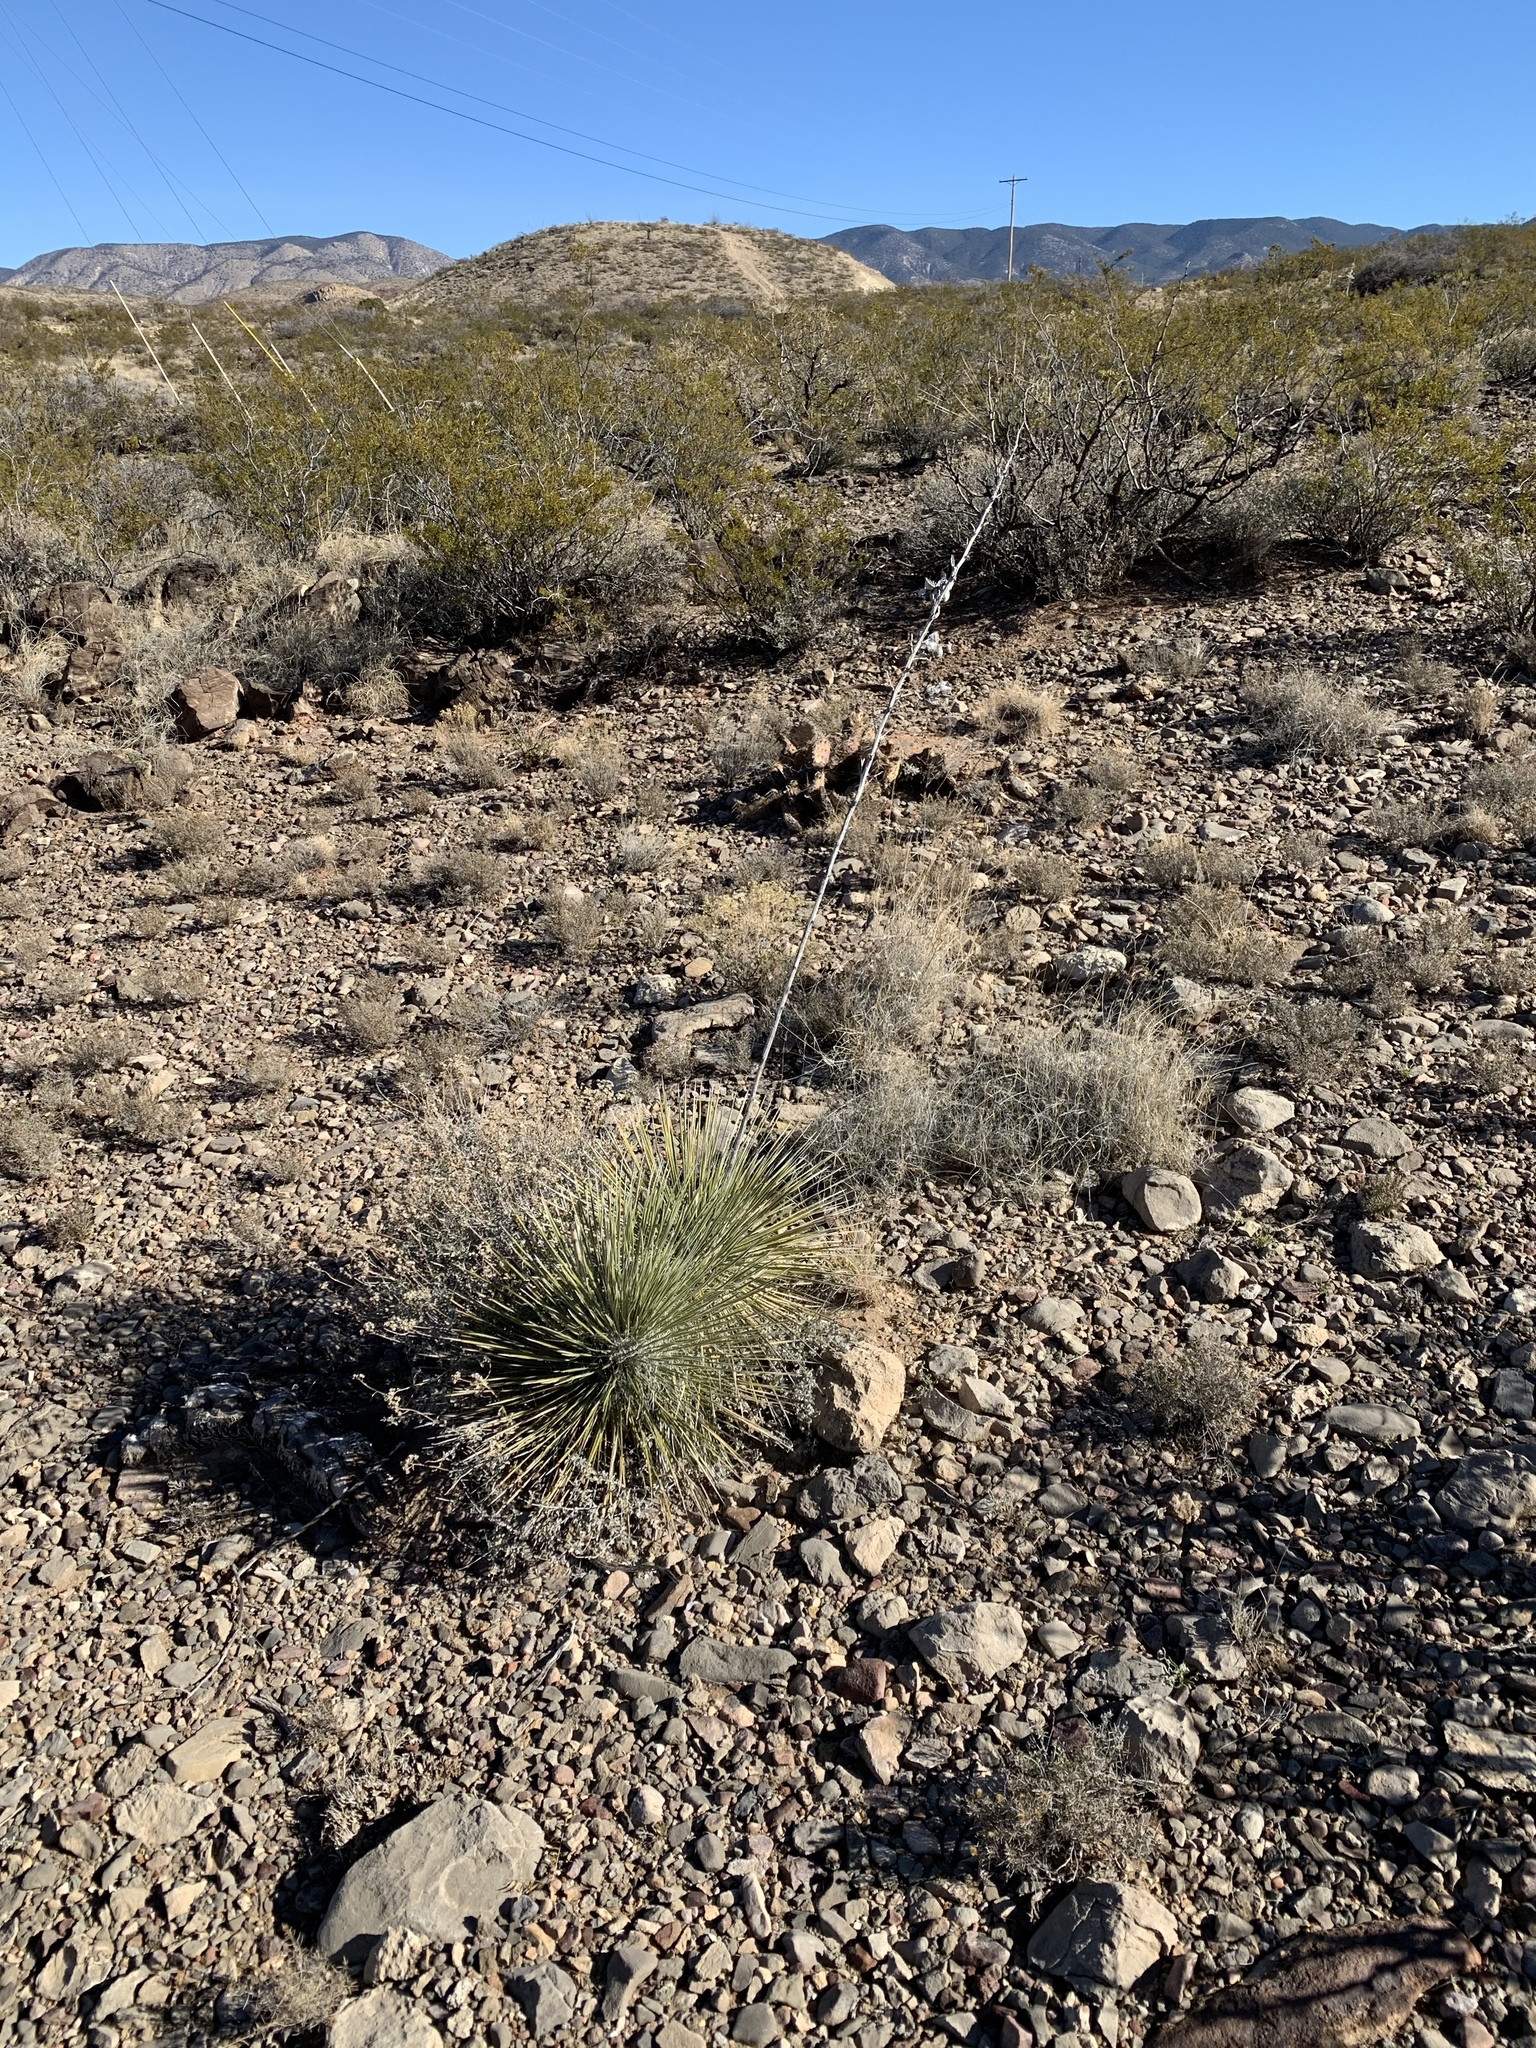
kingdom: Plantae
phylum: Tracheophyta
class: Liliopsida
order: Asparagales
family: Asparagaceae
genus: Yucca
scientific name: Yucca elata
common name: Palmella
